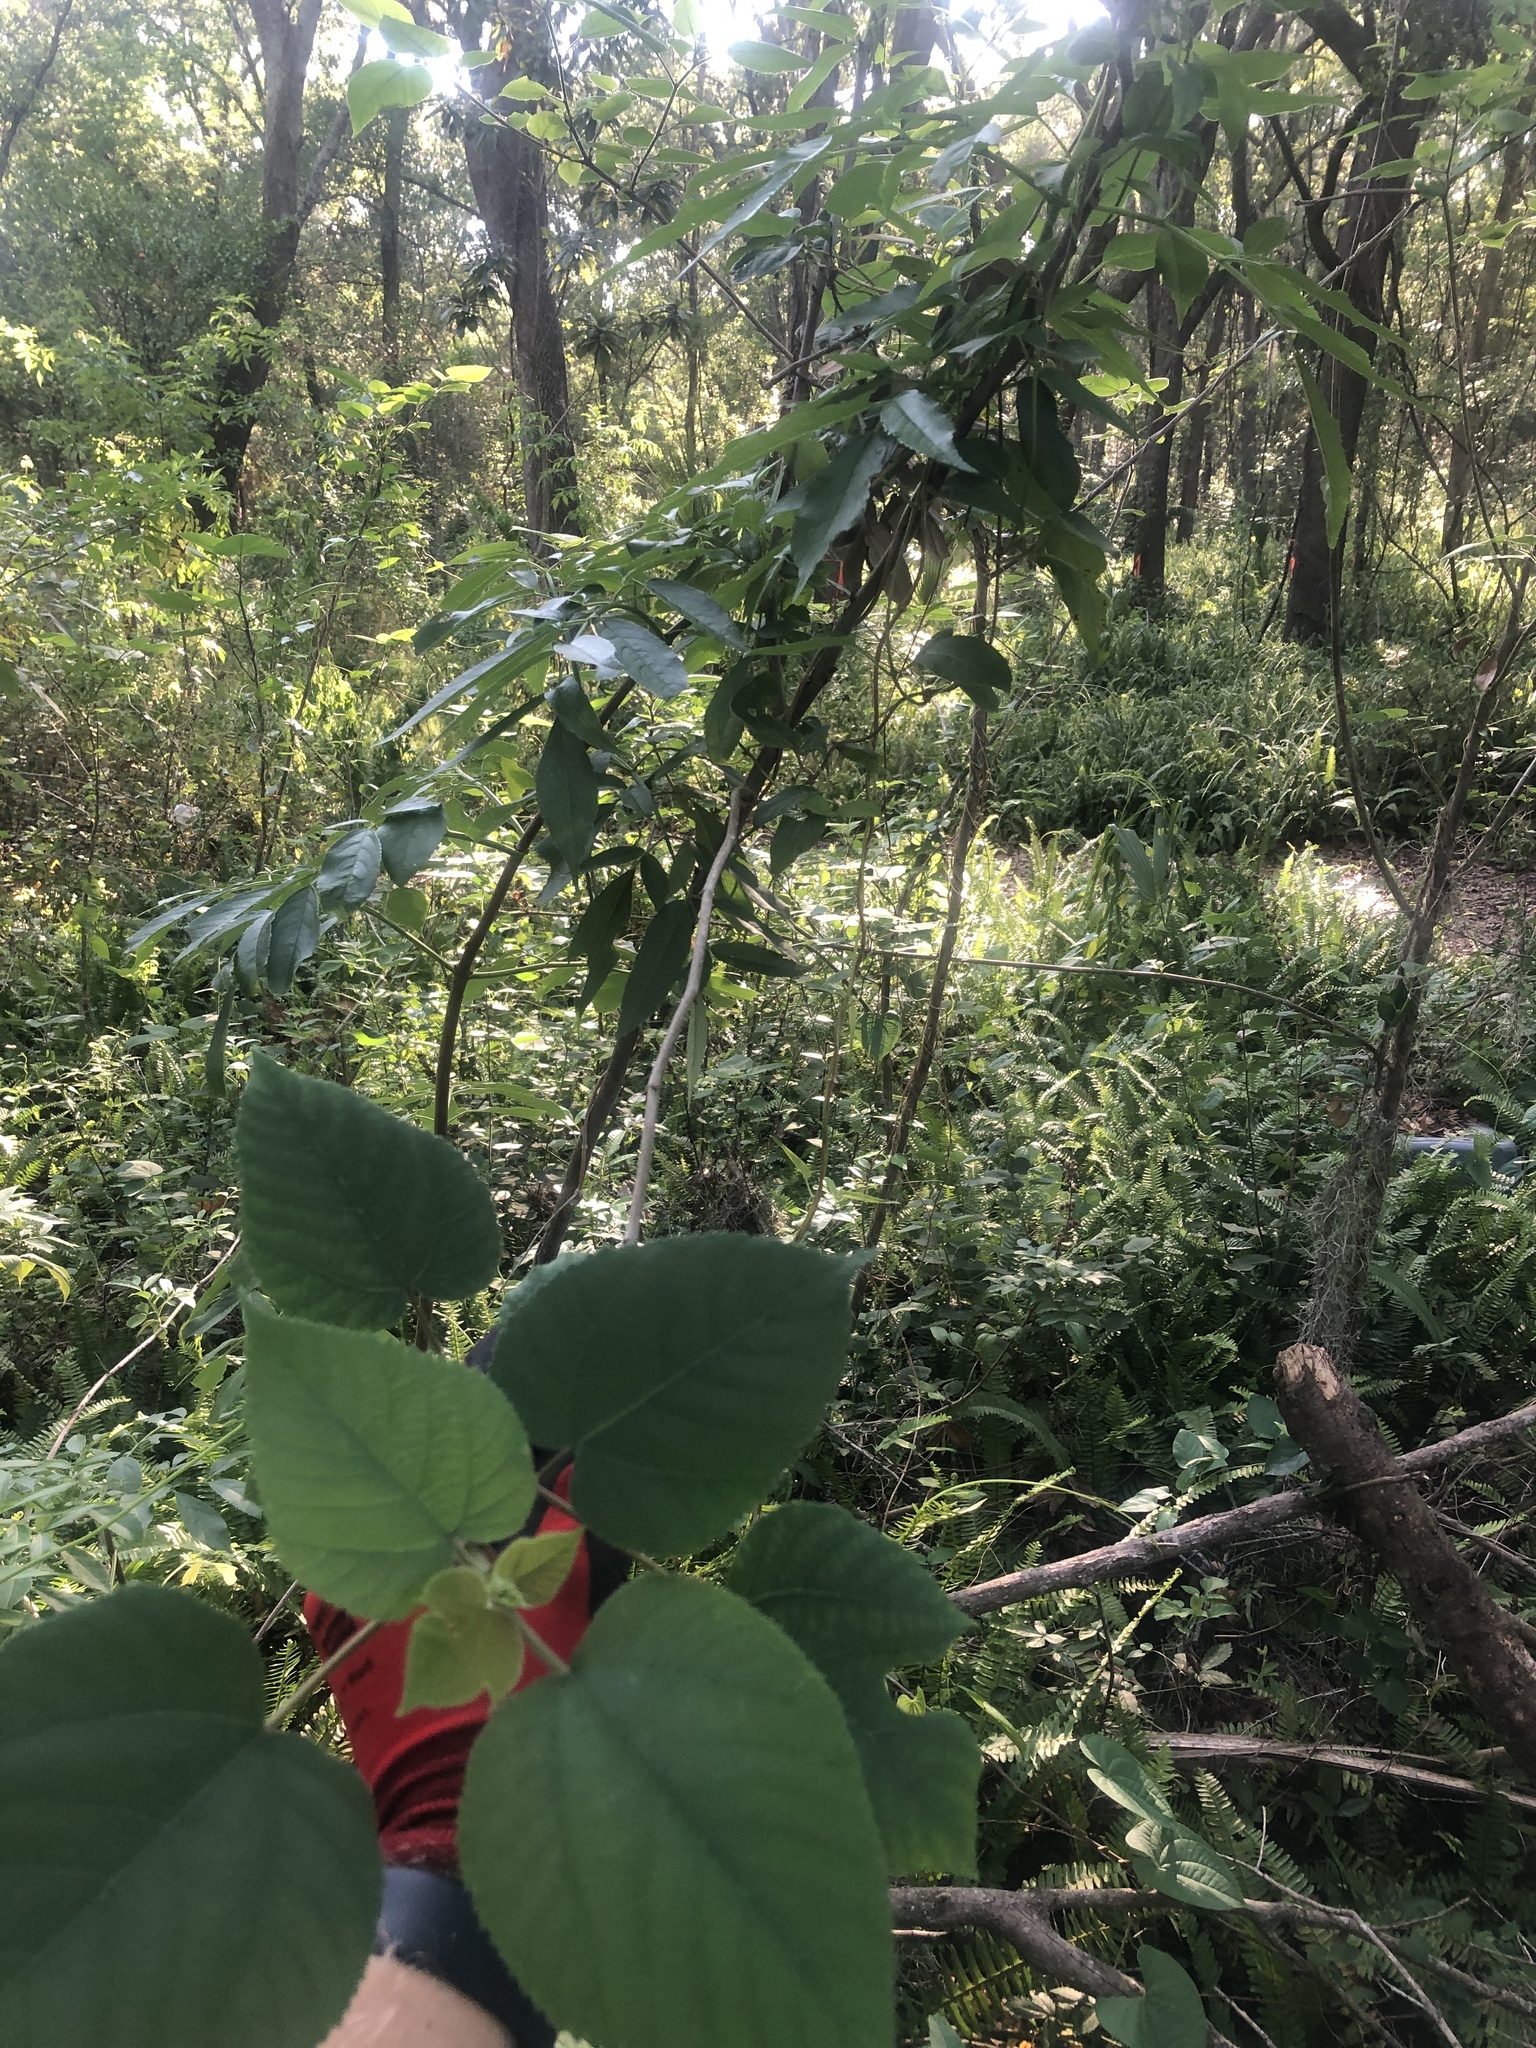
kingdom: Plantae
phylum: Tracheophyta
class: Magnoliopsida
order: Rosales
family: Moraceae
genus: Broussonetia
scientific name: Broussonetia papyrifera
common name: Paper mulberry
